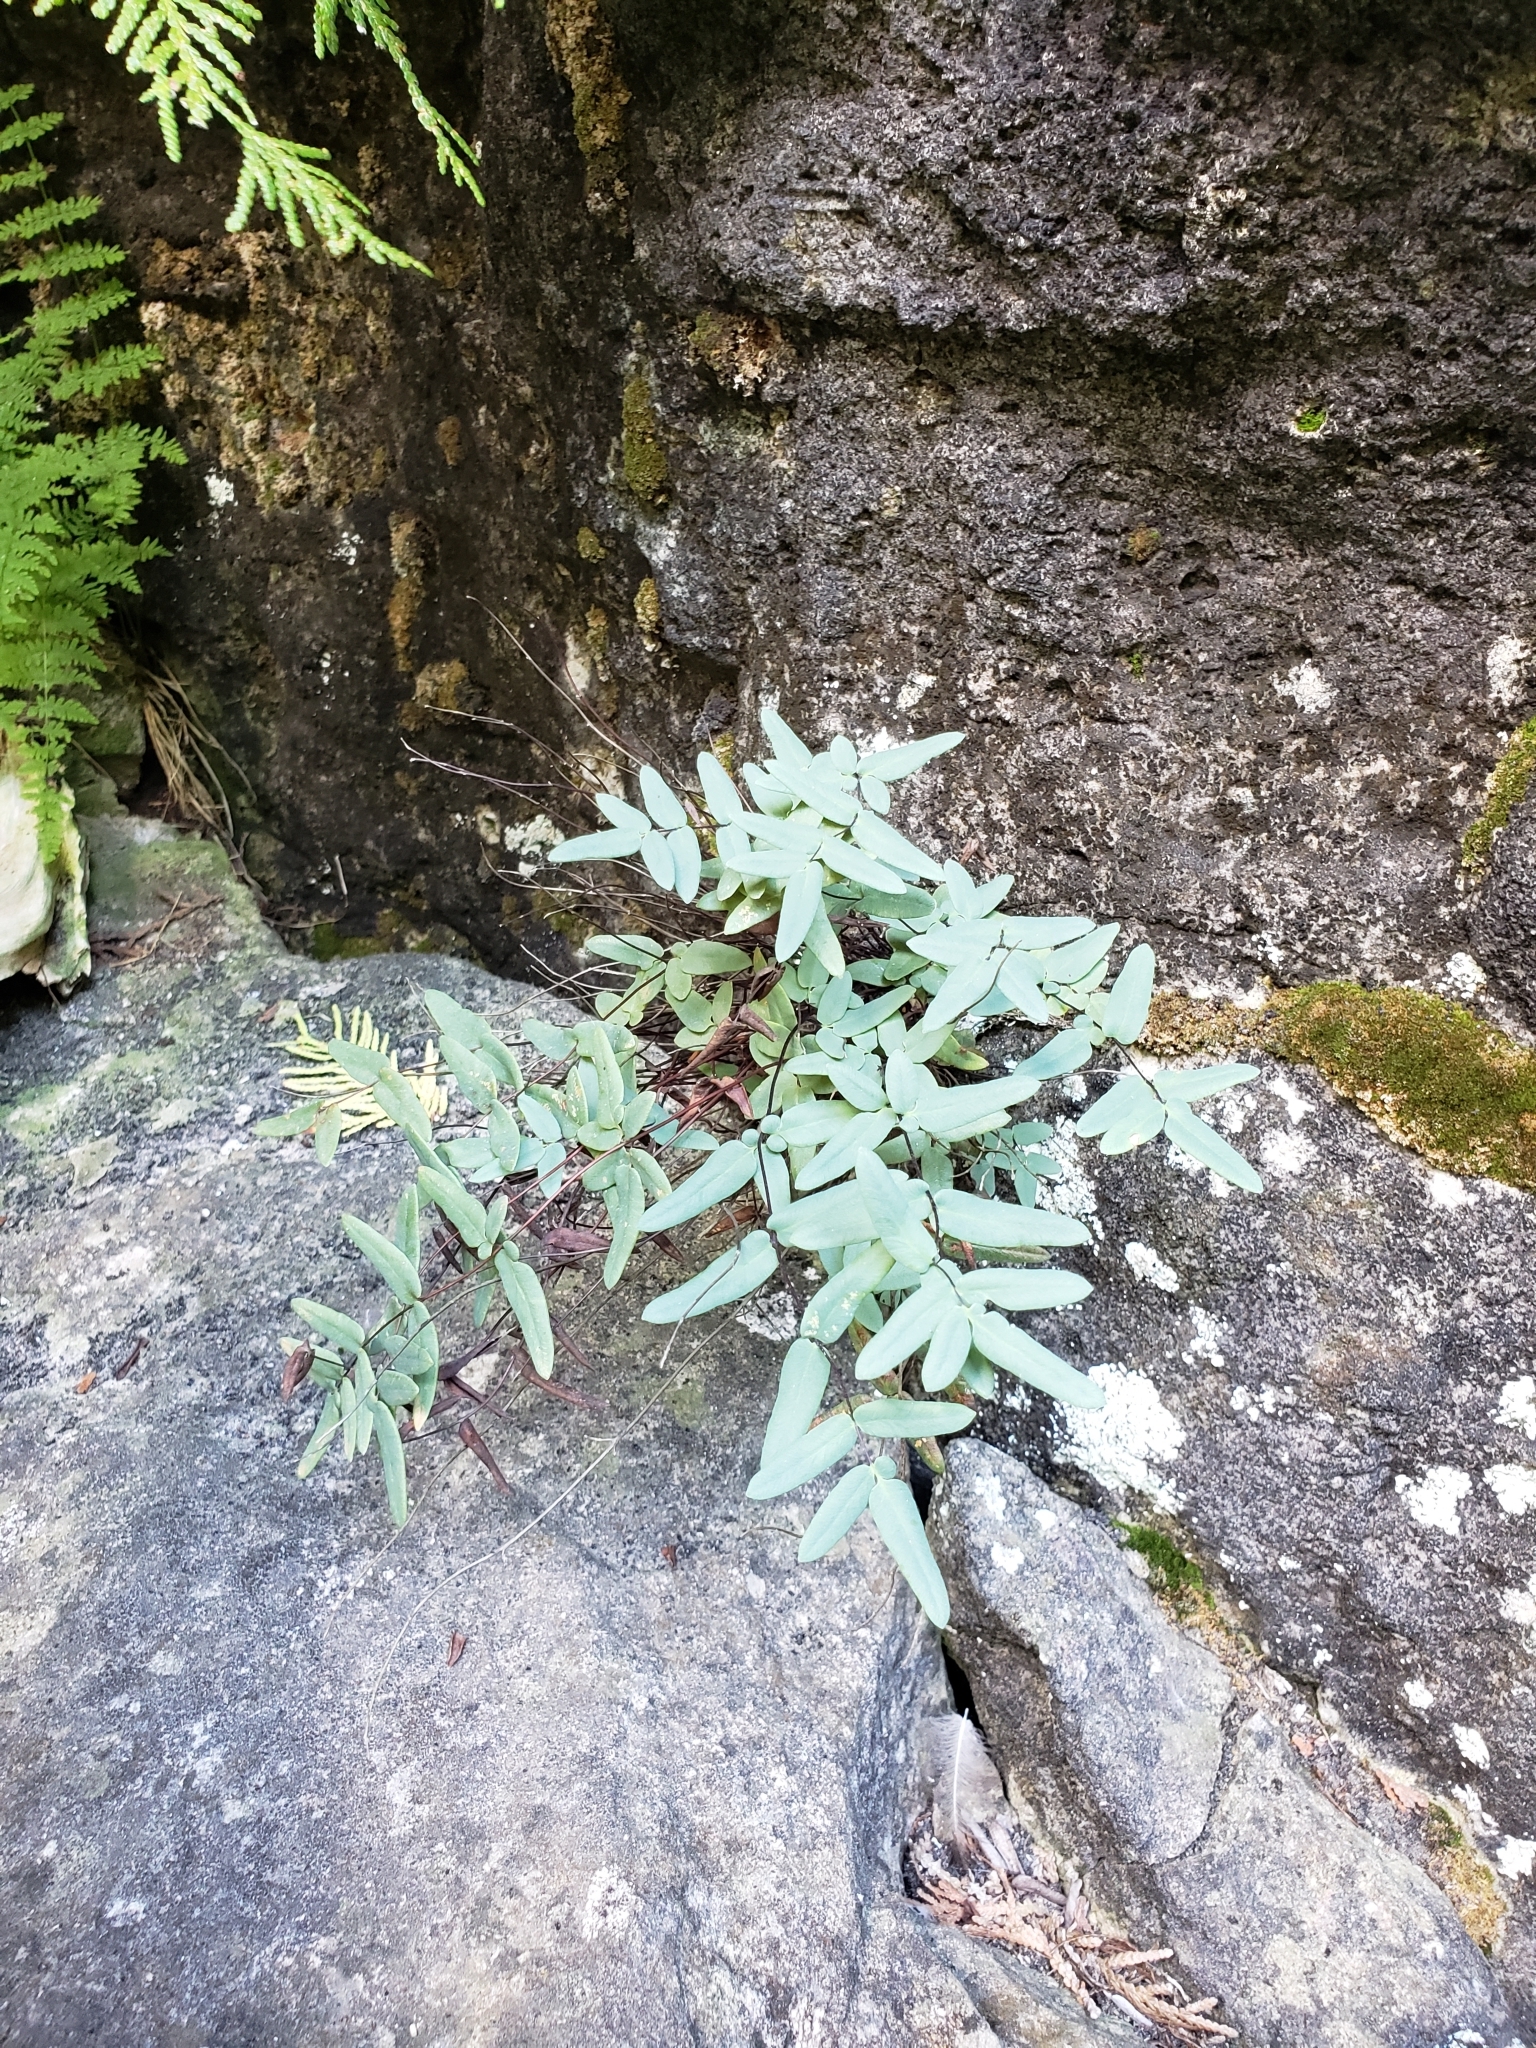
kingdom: Plantae
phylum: Tracheophyta
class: Polypodiopsida
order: Polypodiales
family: Pteridaceae
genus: Pellaea
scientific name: Pellaea glabella
